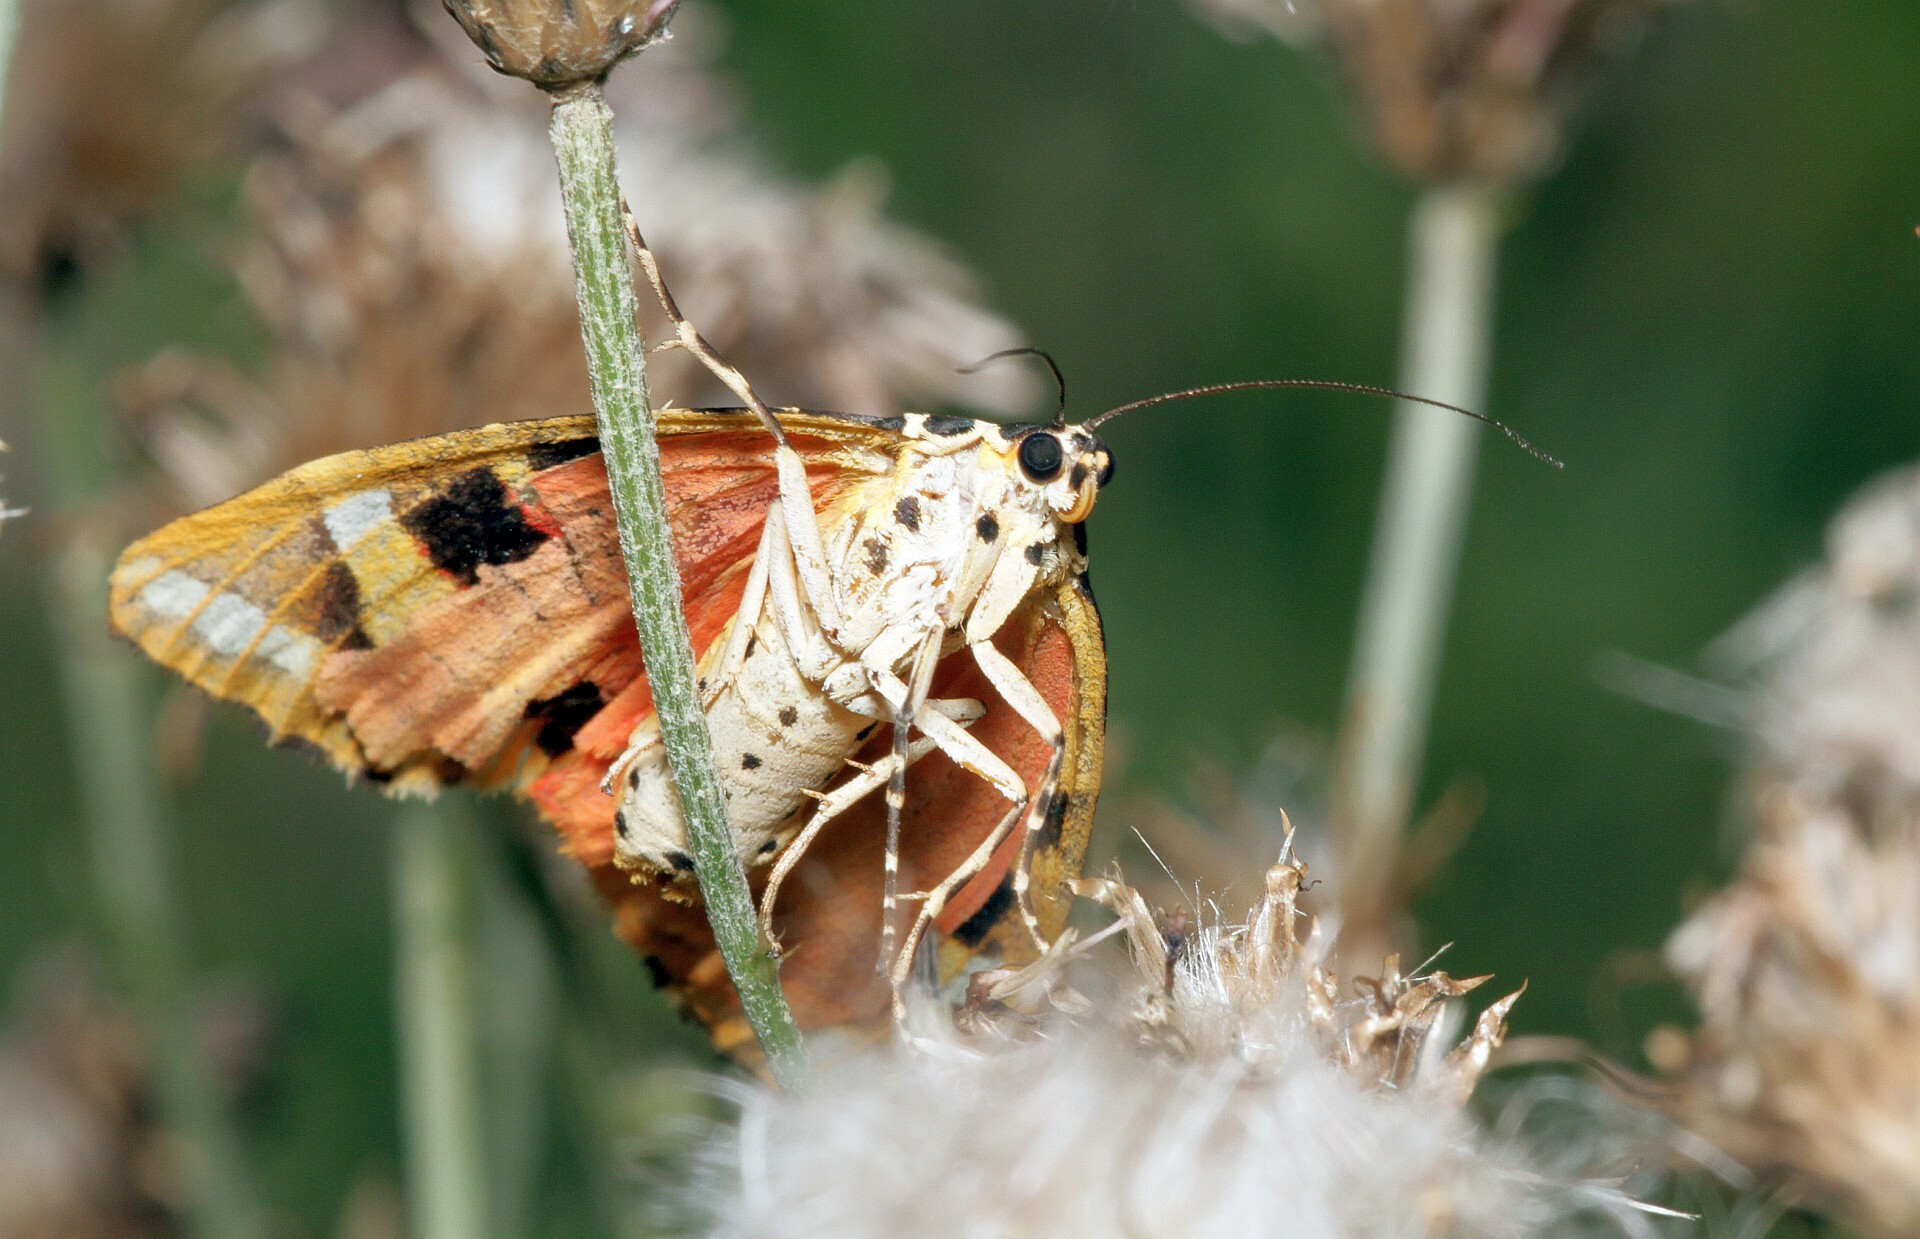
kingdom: Animalia
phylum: Arthropoda
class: Insecta
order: Lepidoptera
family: Erebidae
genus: Euplagia
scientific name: Euplagia quadripunctaria
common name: Jersey tiger
